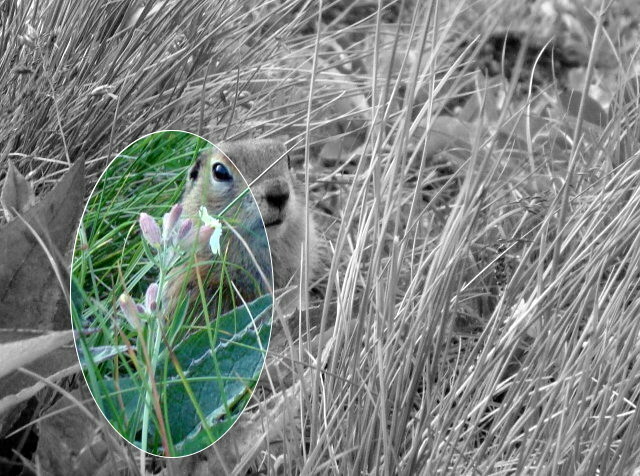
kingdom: Plantae
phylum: Tracheophyta
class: Magnoliopsida
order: Caryophyllales
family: Caryophyllaceae
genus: Silene
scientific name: Silene repens
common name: Pink campion
